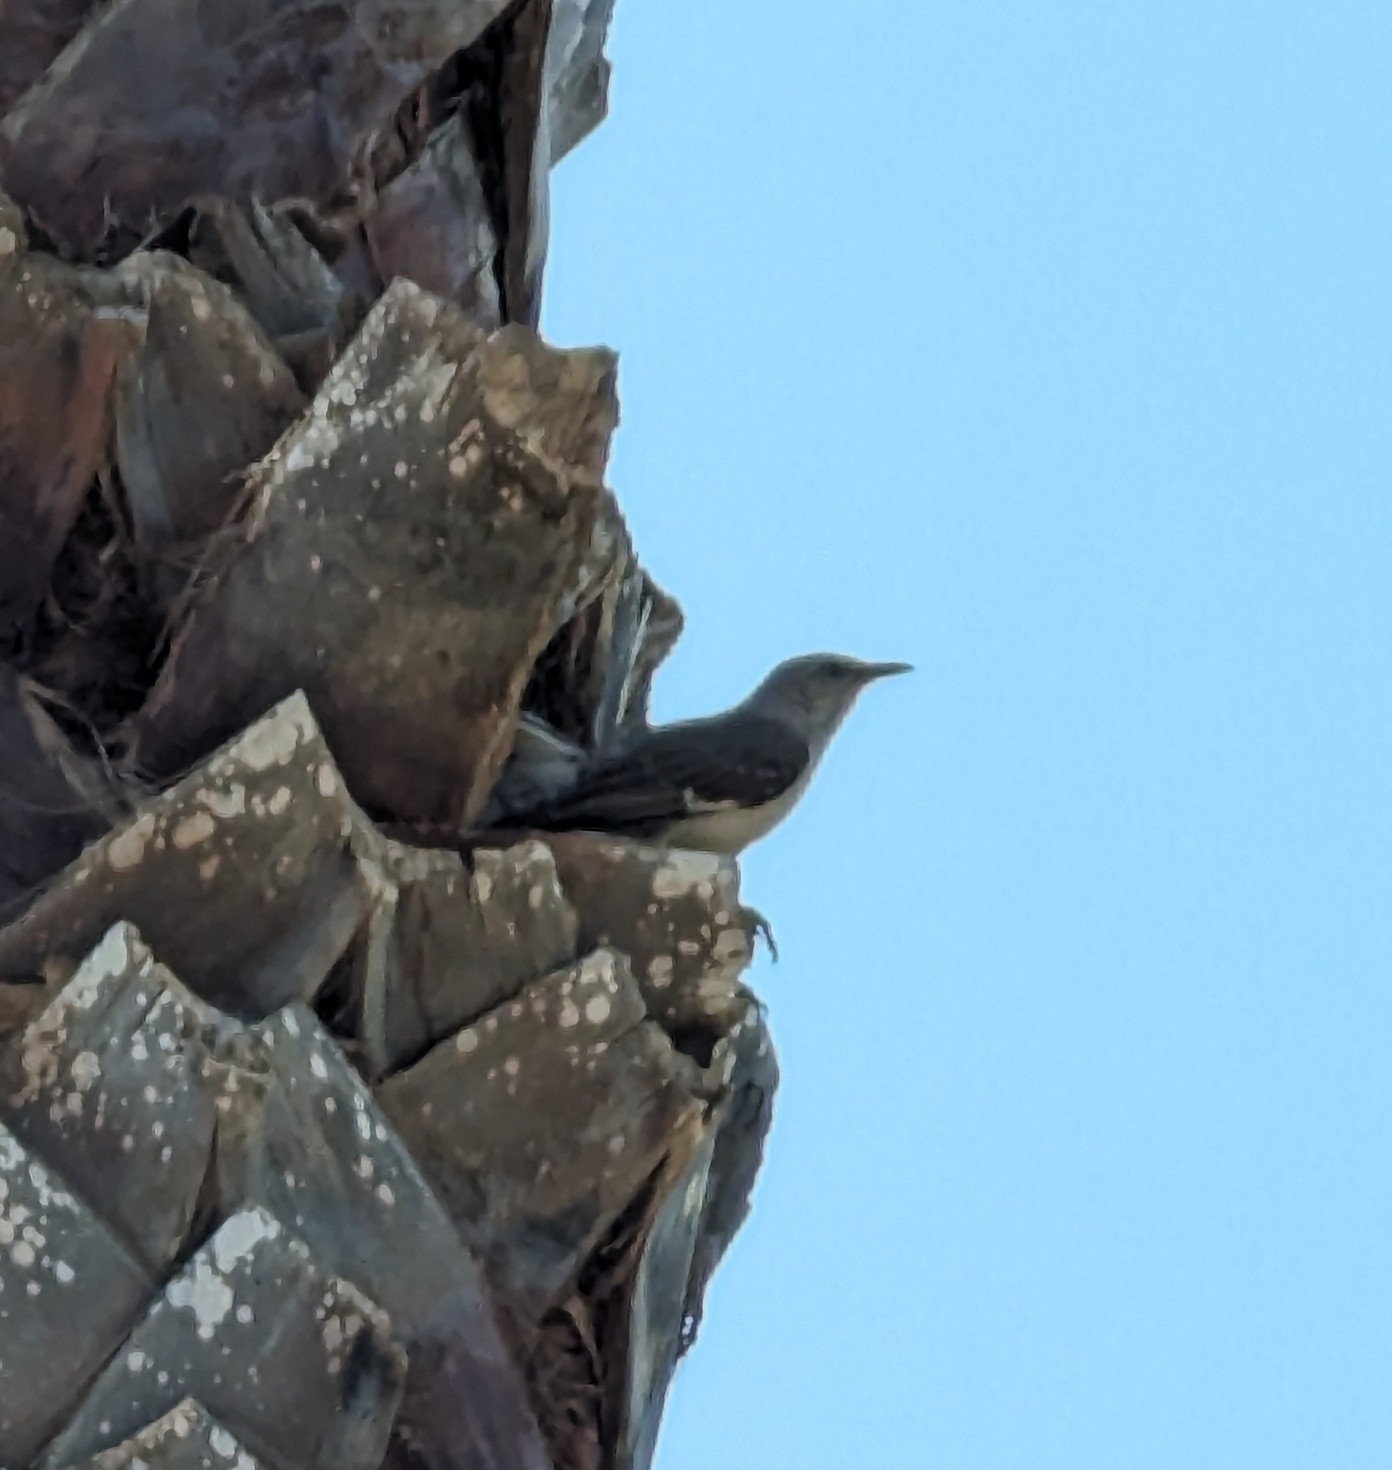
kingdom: Animalia
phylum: Chordata
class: Aves
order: Passeriformes
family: Mimidae
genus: Mimus
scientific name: Mimus polyglottos
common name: Northern mockingbird
